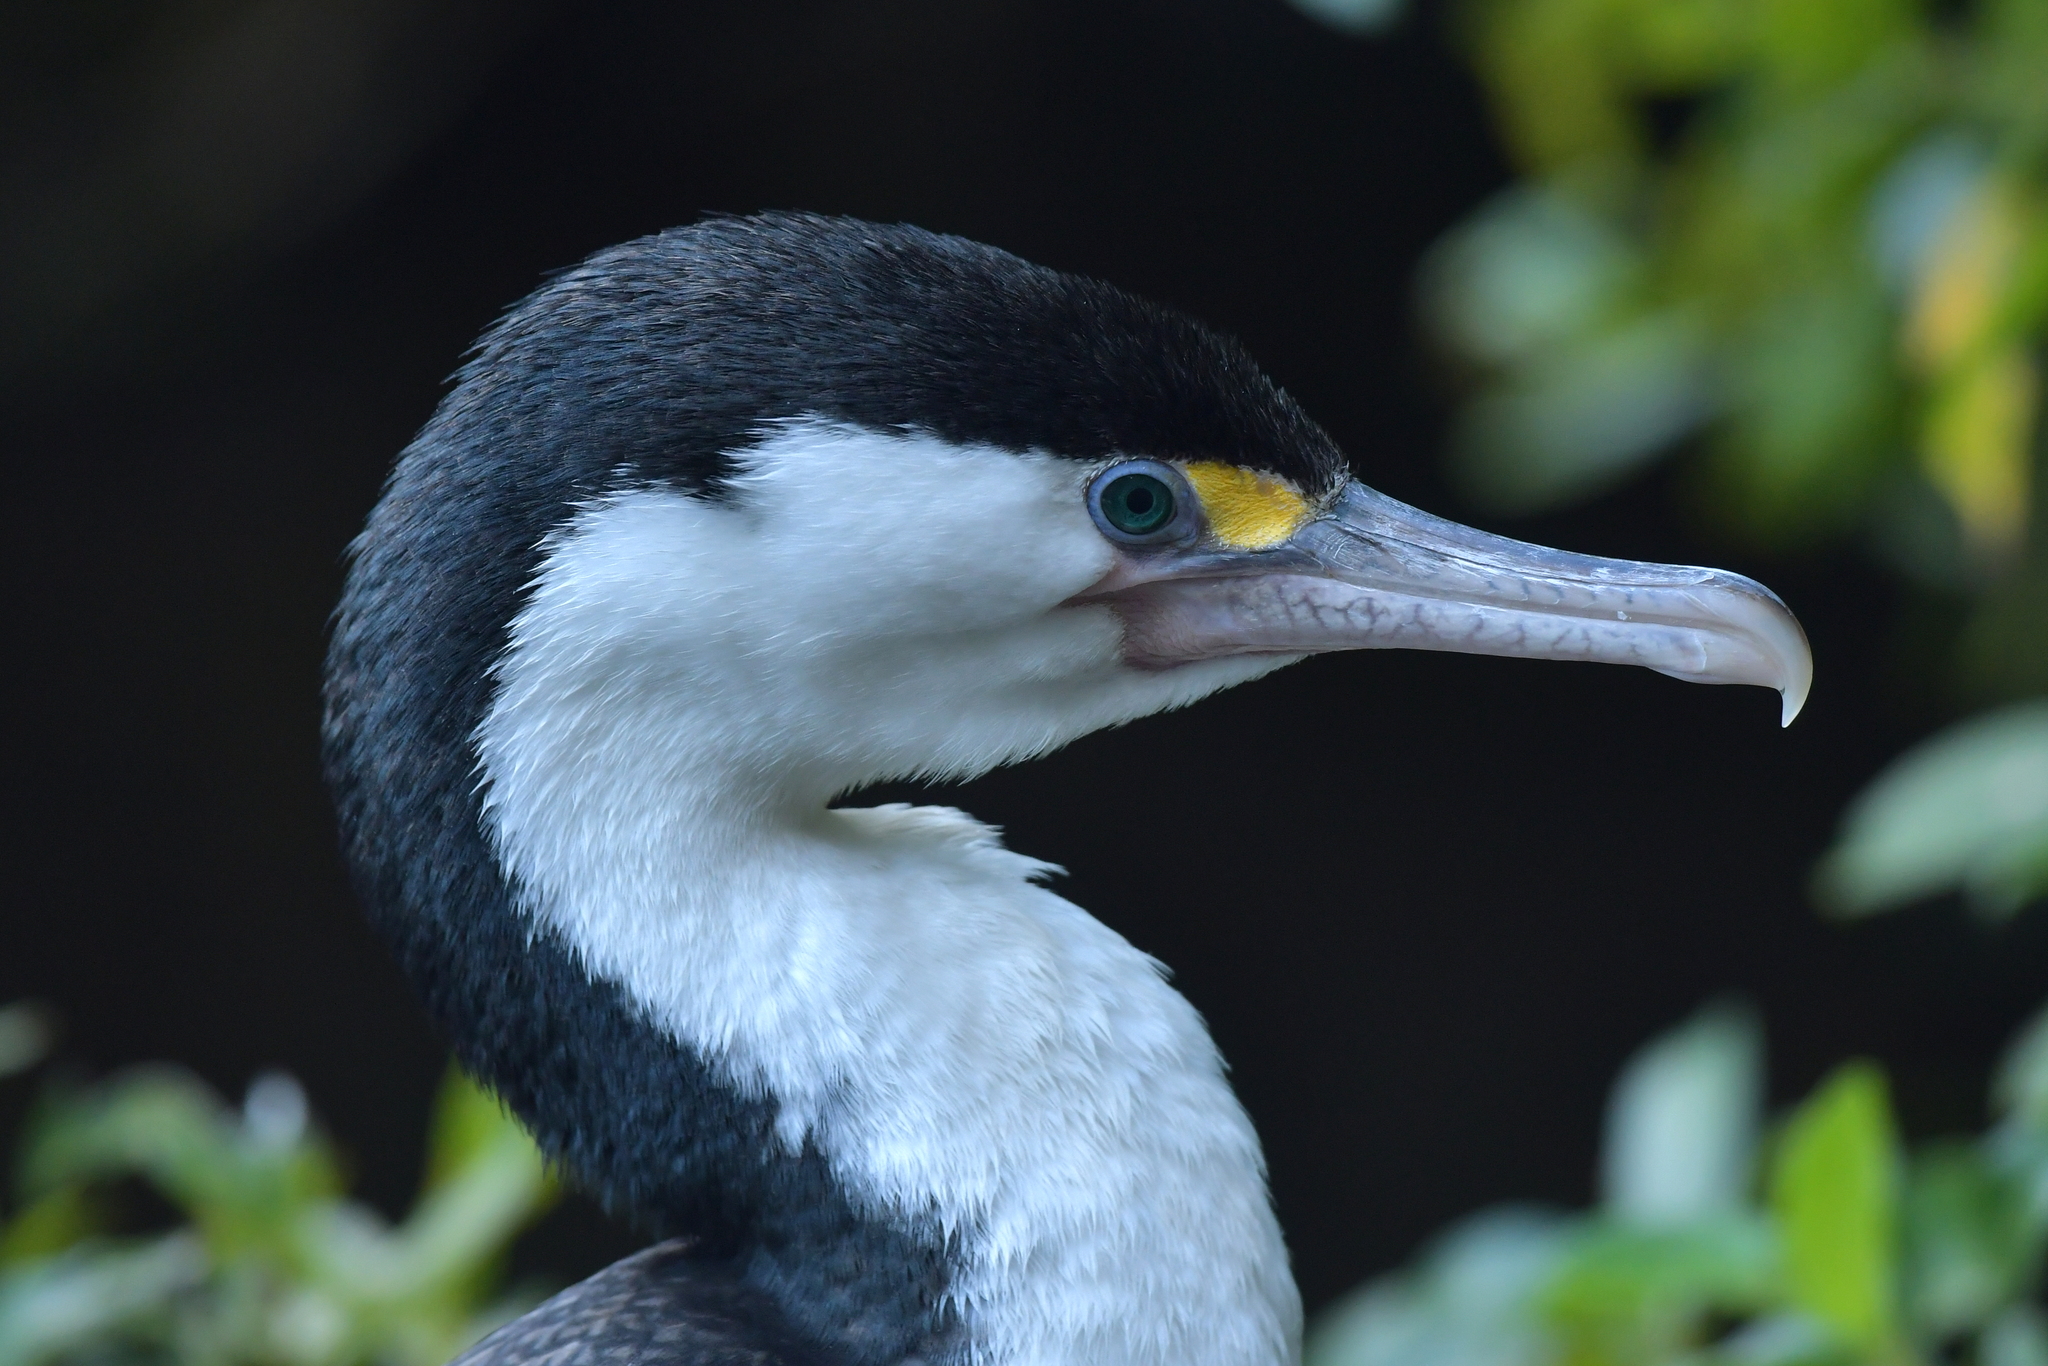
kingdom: Animalia
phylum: Chordata
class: Aves
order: Suliformes
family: Phalacrocoracidae
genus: Phalacrocorax
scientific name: Phalacrocorax varius
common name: Pied cormorant
